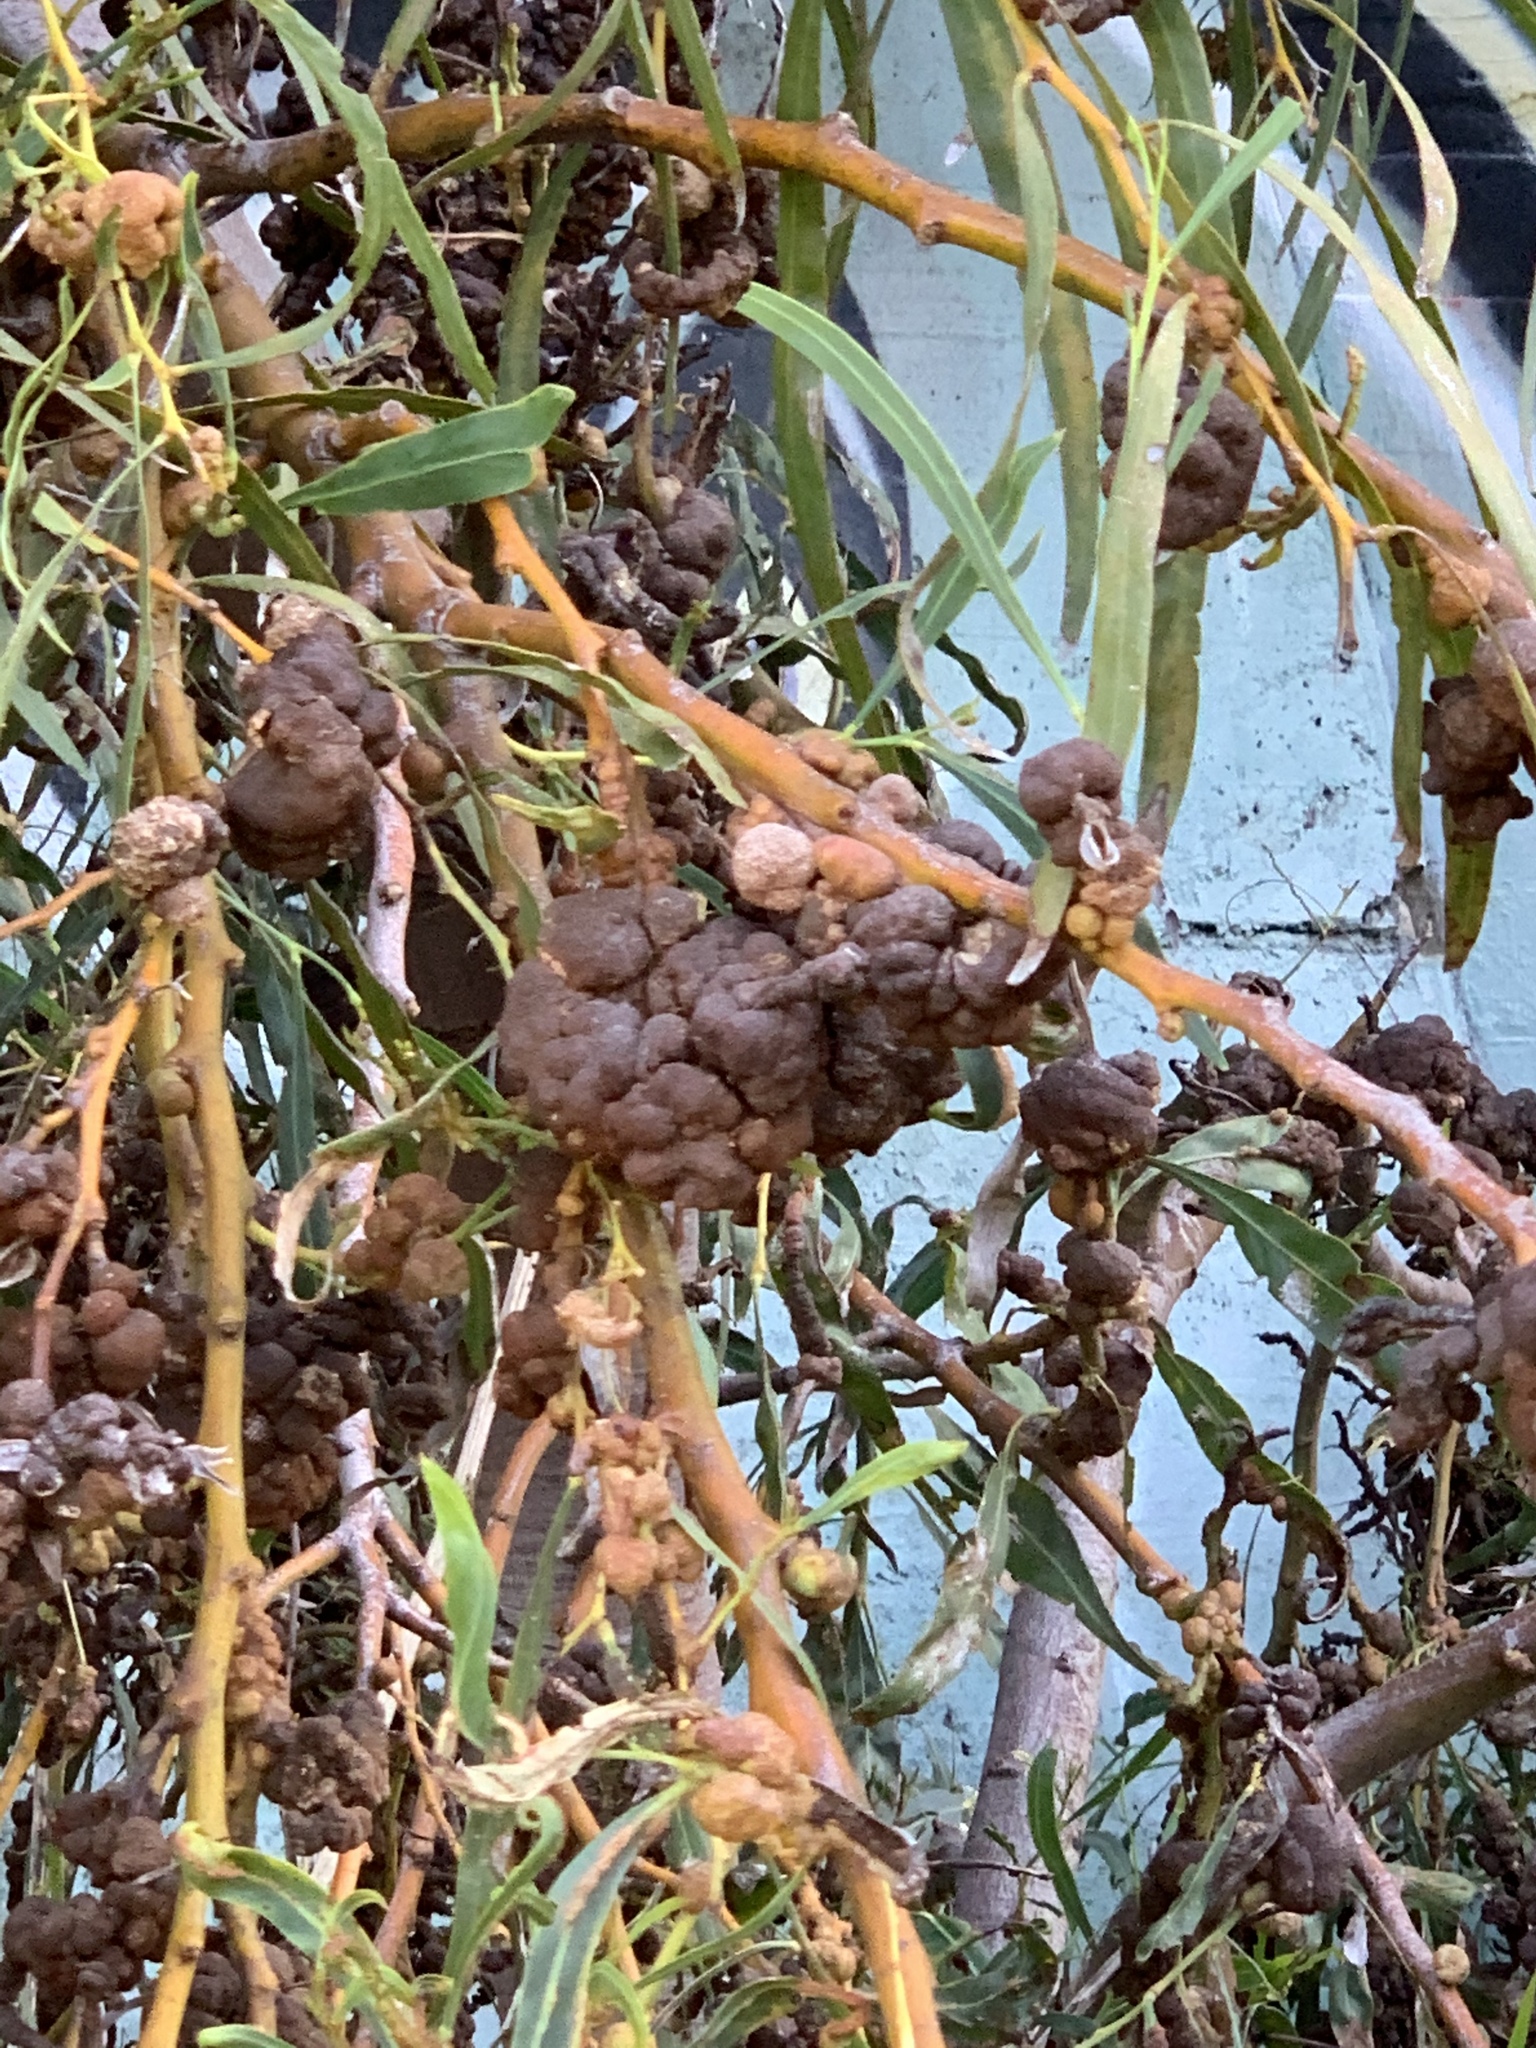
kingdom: Fungi
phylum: Basidiomycota
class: Pucciniomycetes
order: Pucciniales
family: Uromycladiaceae
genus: Uromycladium
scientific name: Uromycladium morrisii
